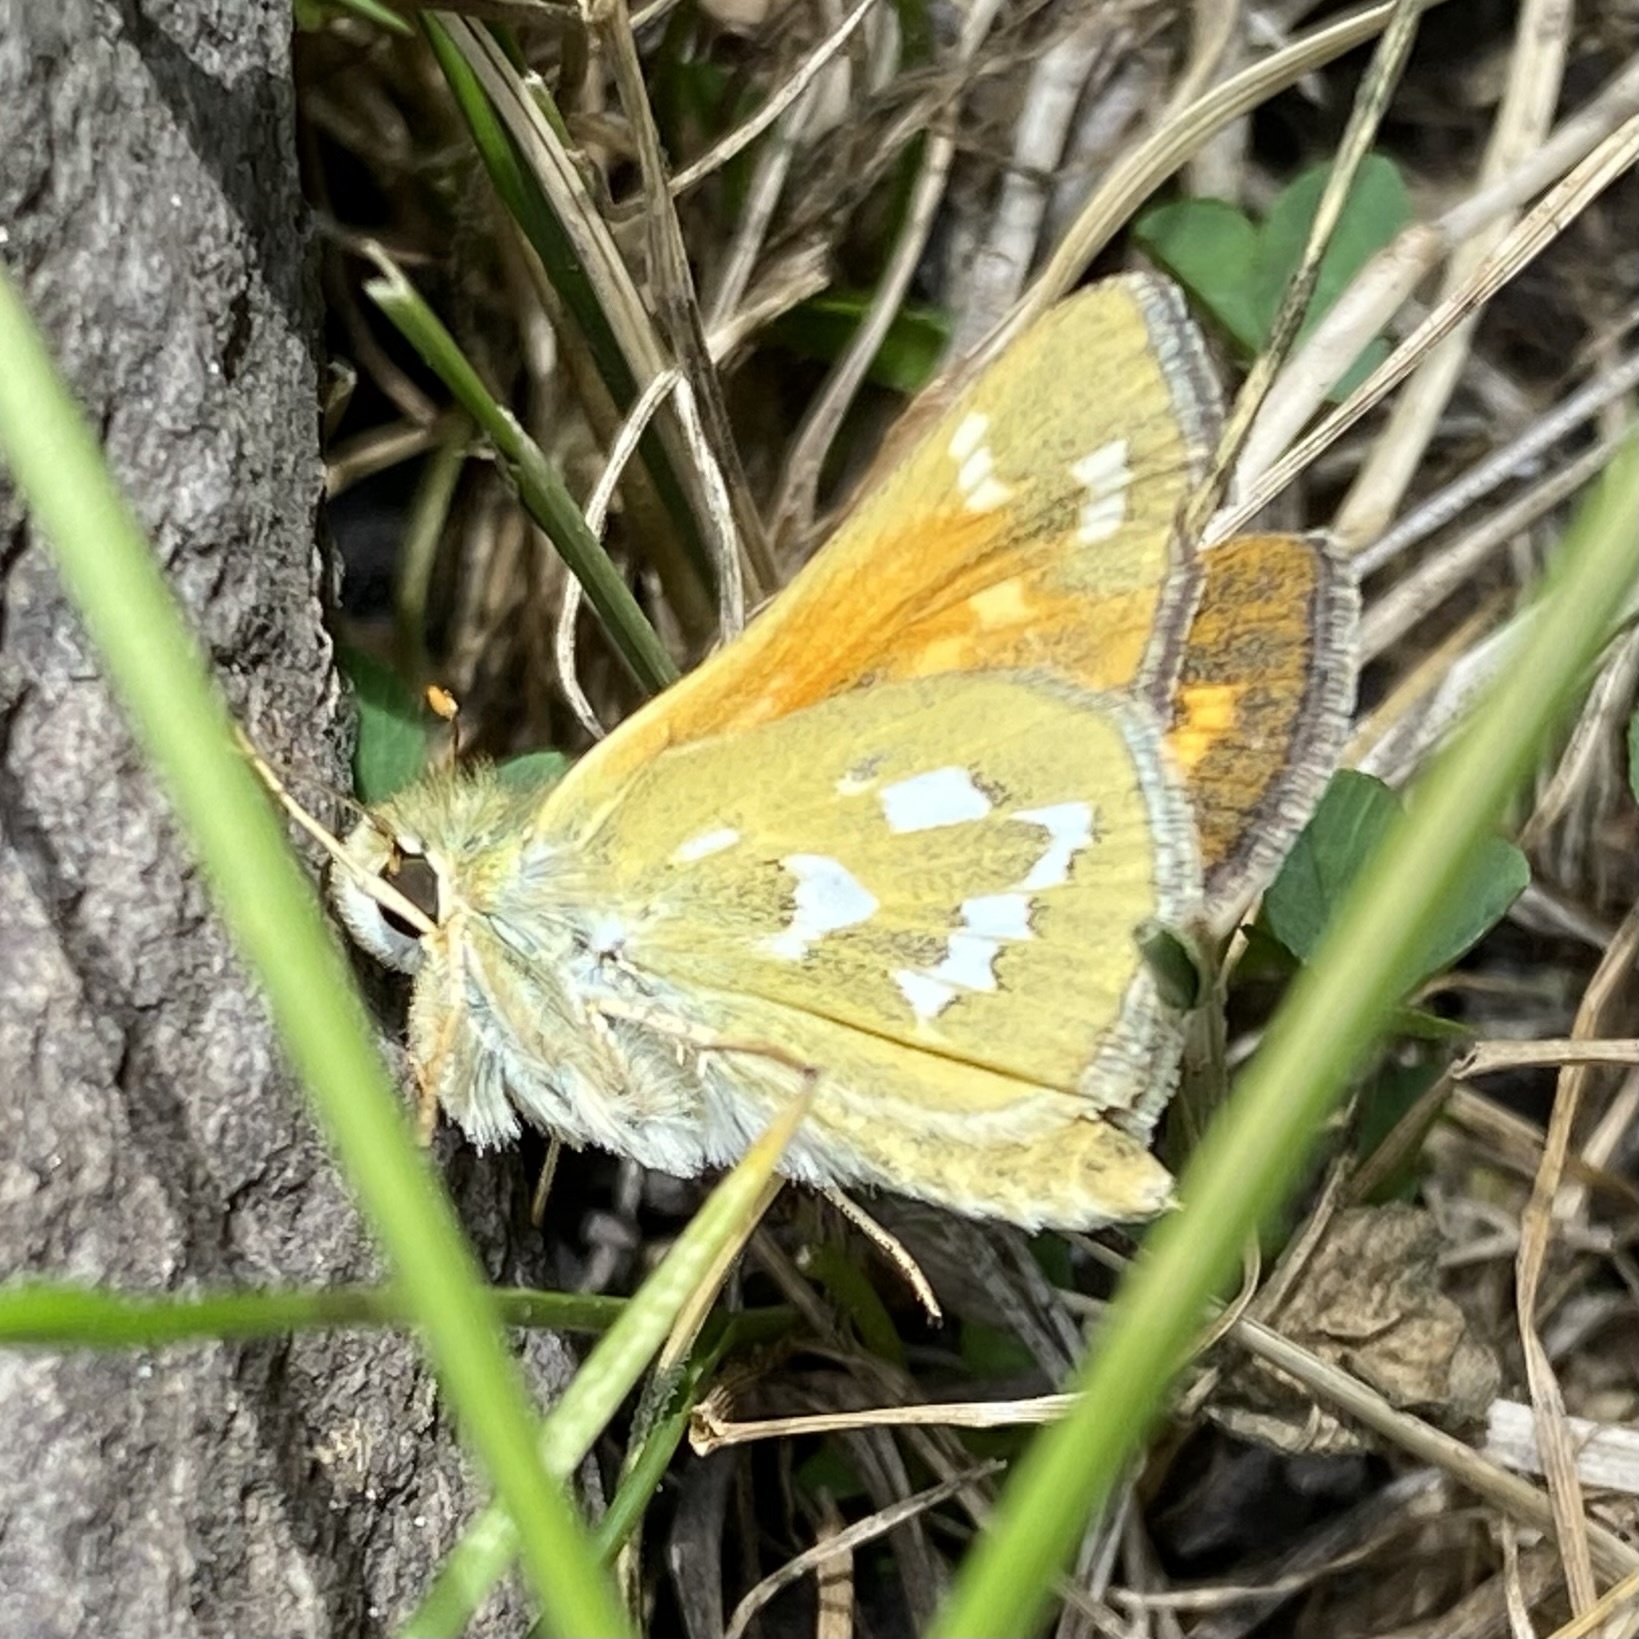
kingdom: Animalia
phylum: Arthropoda
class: Insecta
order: Lepidoptera
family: Hesperiidae
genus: Hesperia
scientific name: Hesperia comma
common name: Common branded skipper
